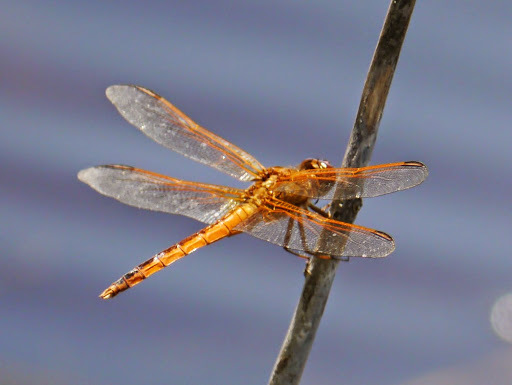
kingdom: Animalia
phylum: Arthropoda
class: Insecta
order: Odonata
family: Libellulidae
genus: Libellula
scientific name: Libellula needhami
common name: Needham's skimmer
